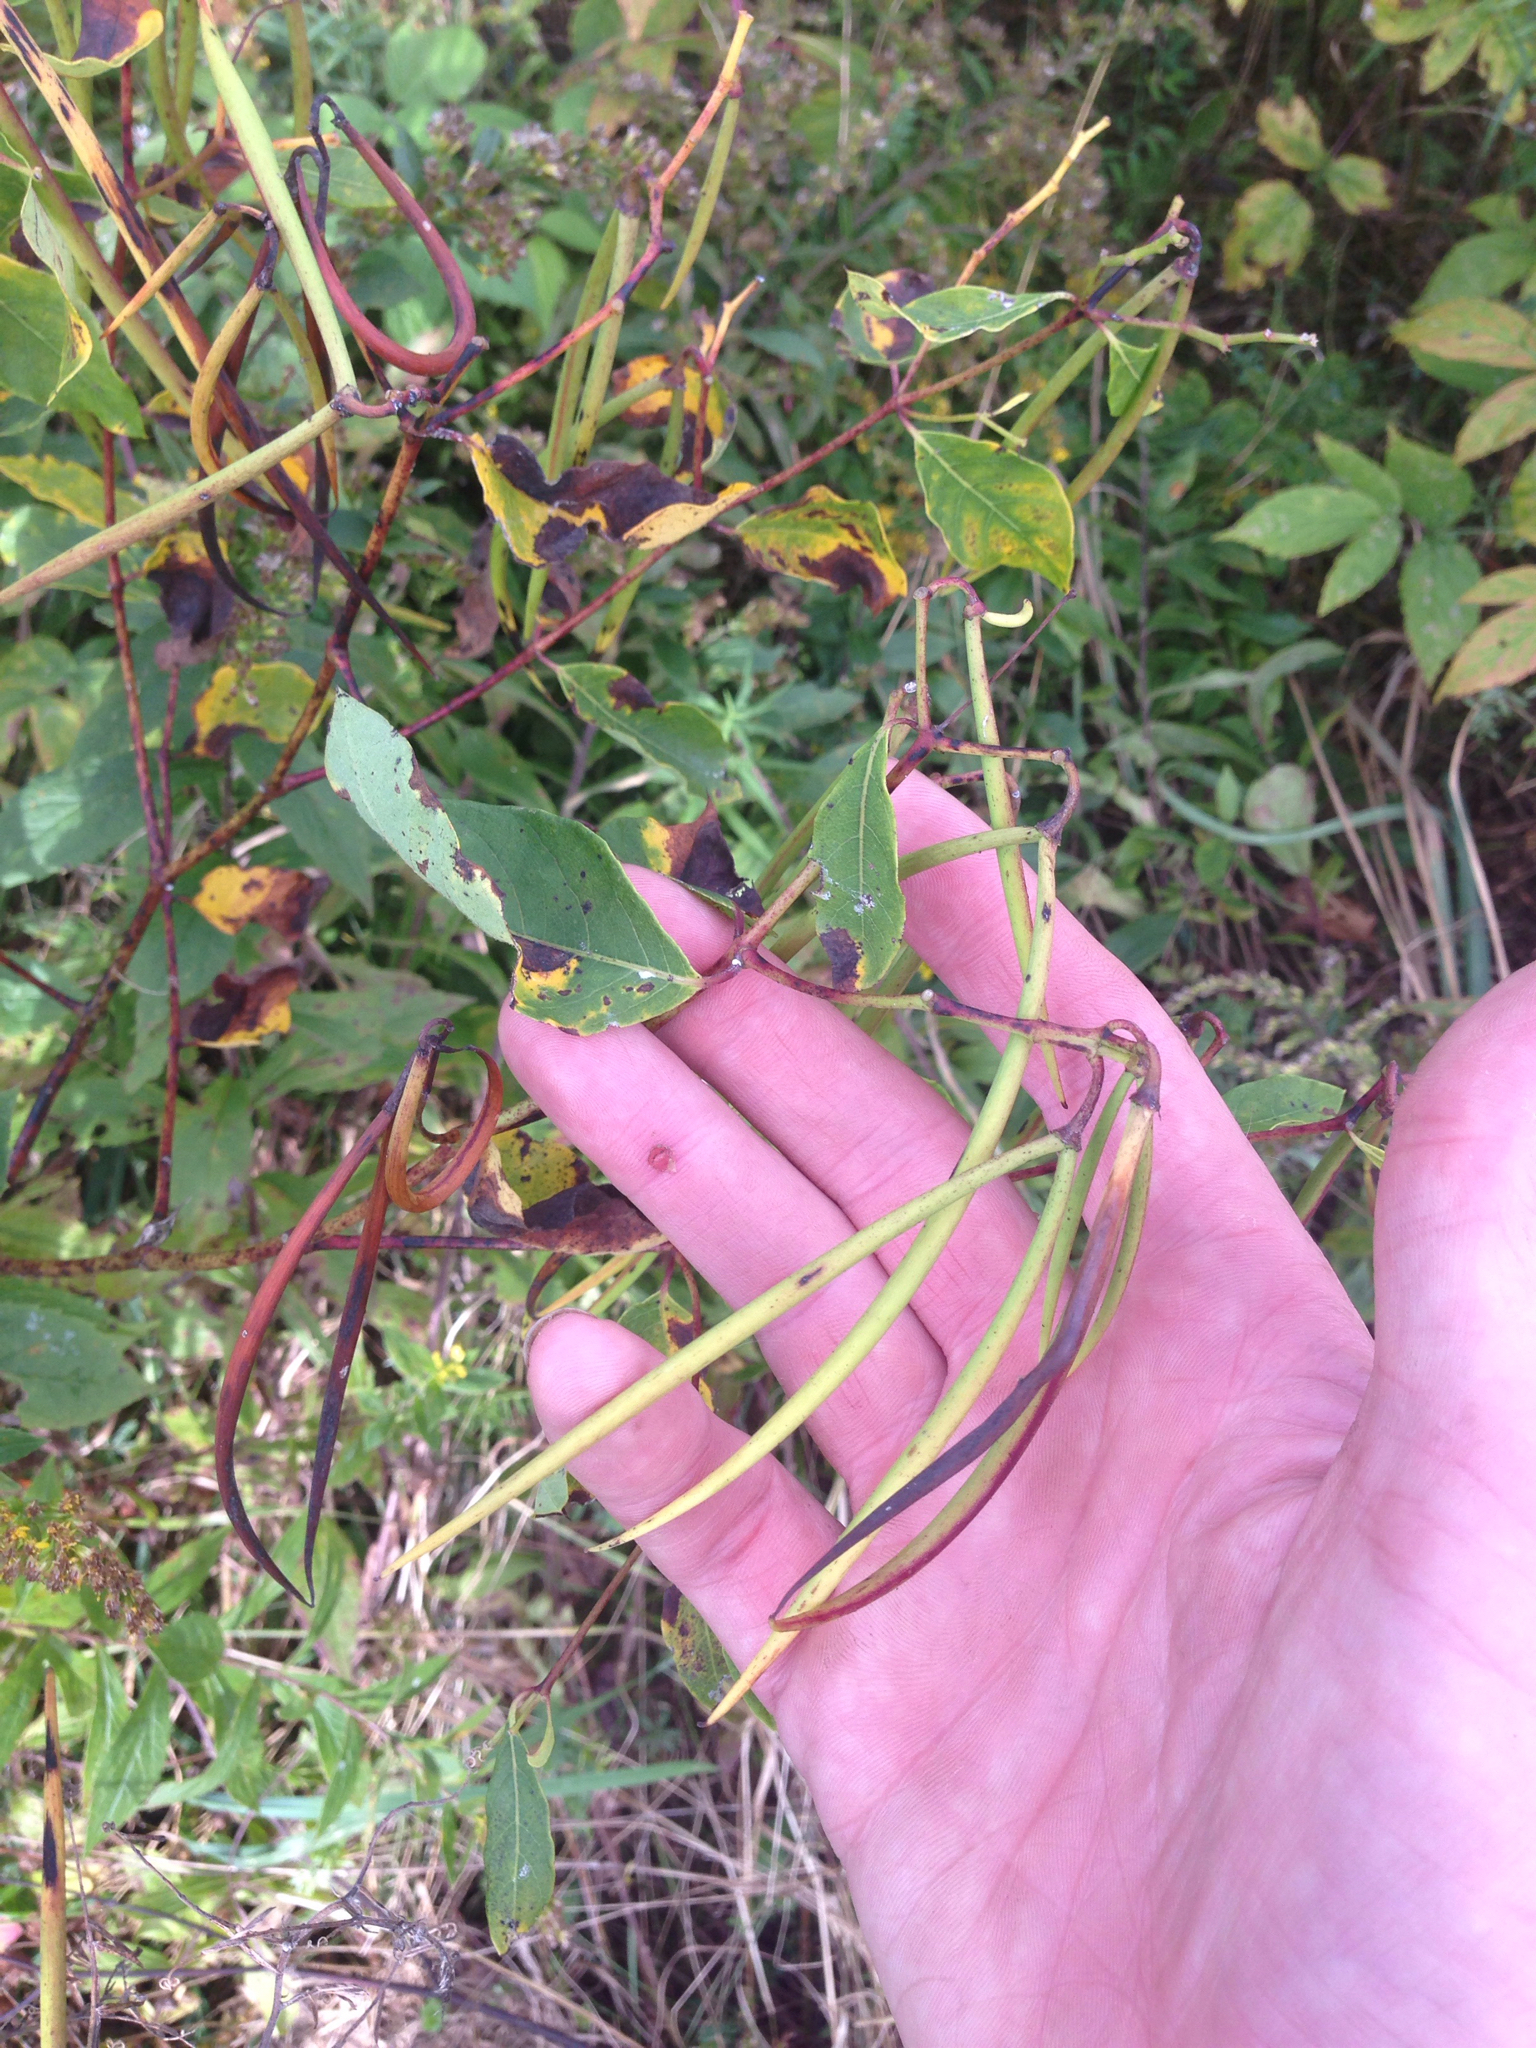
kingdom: Plantae
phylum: Tracheophyta
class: Magnoliopsida
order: Gentianales
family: Apocynaceae
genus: Apocynum
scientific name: Apocynum androsaemifolium
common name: Spreading dogbane
